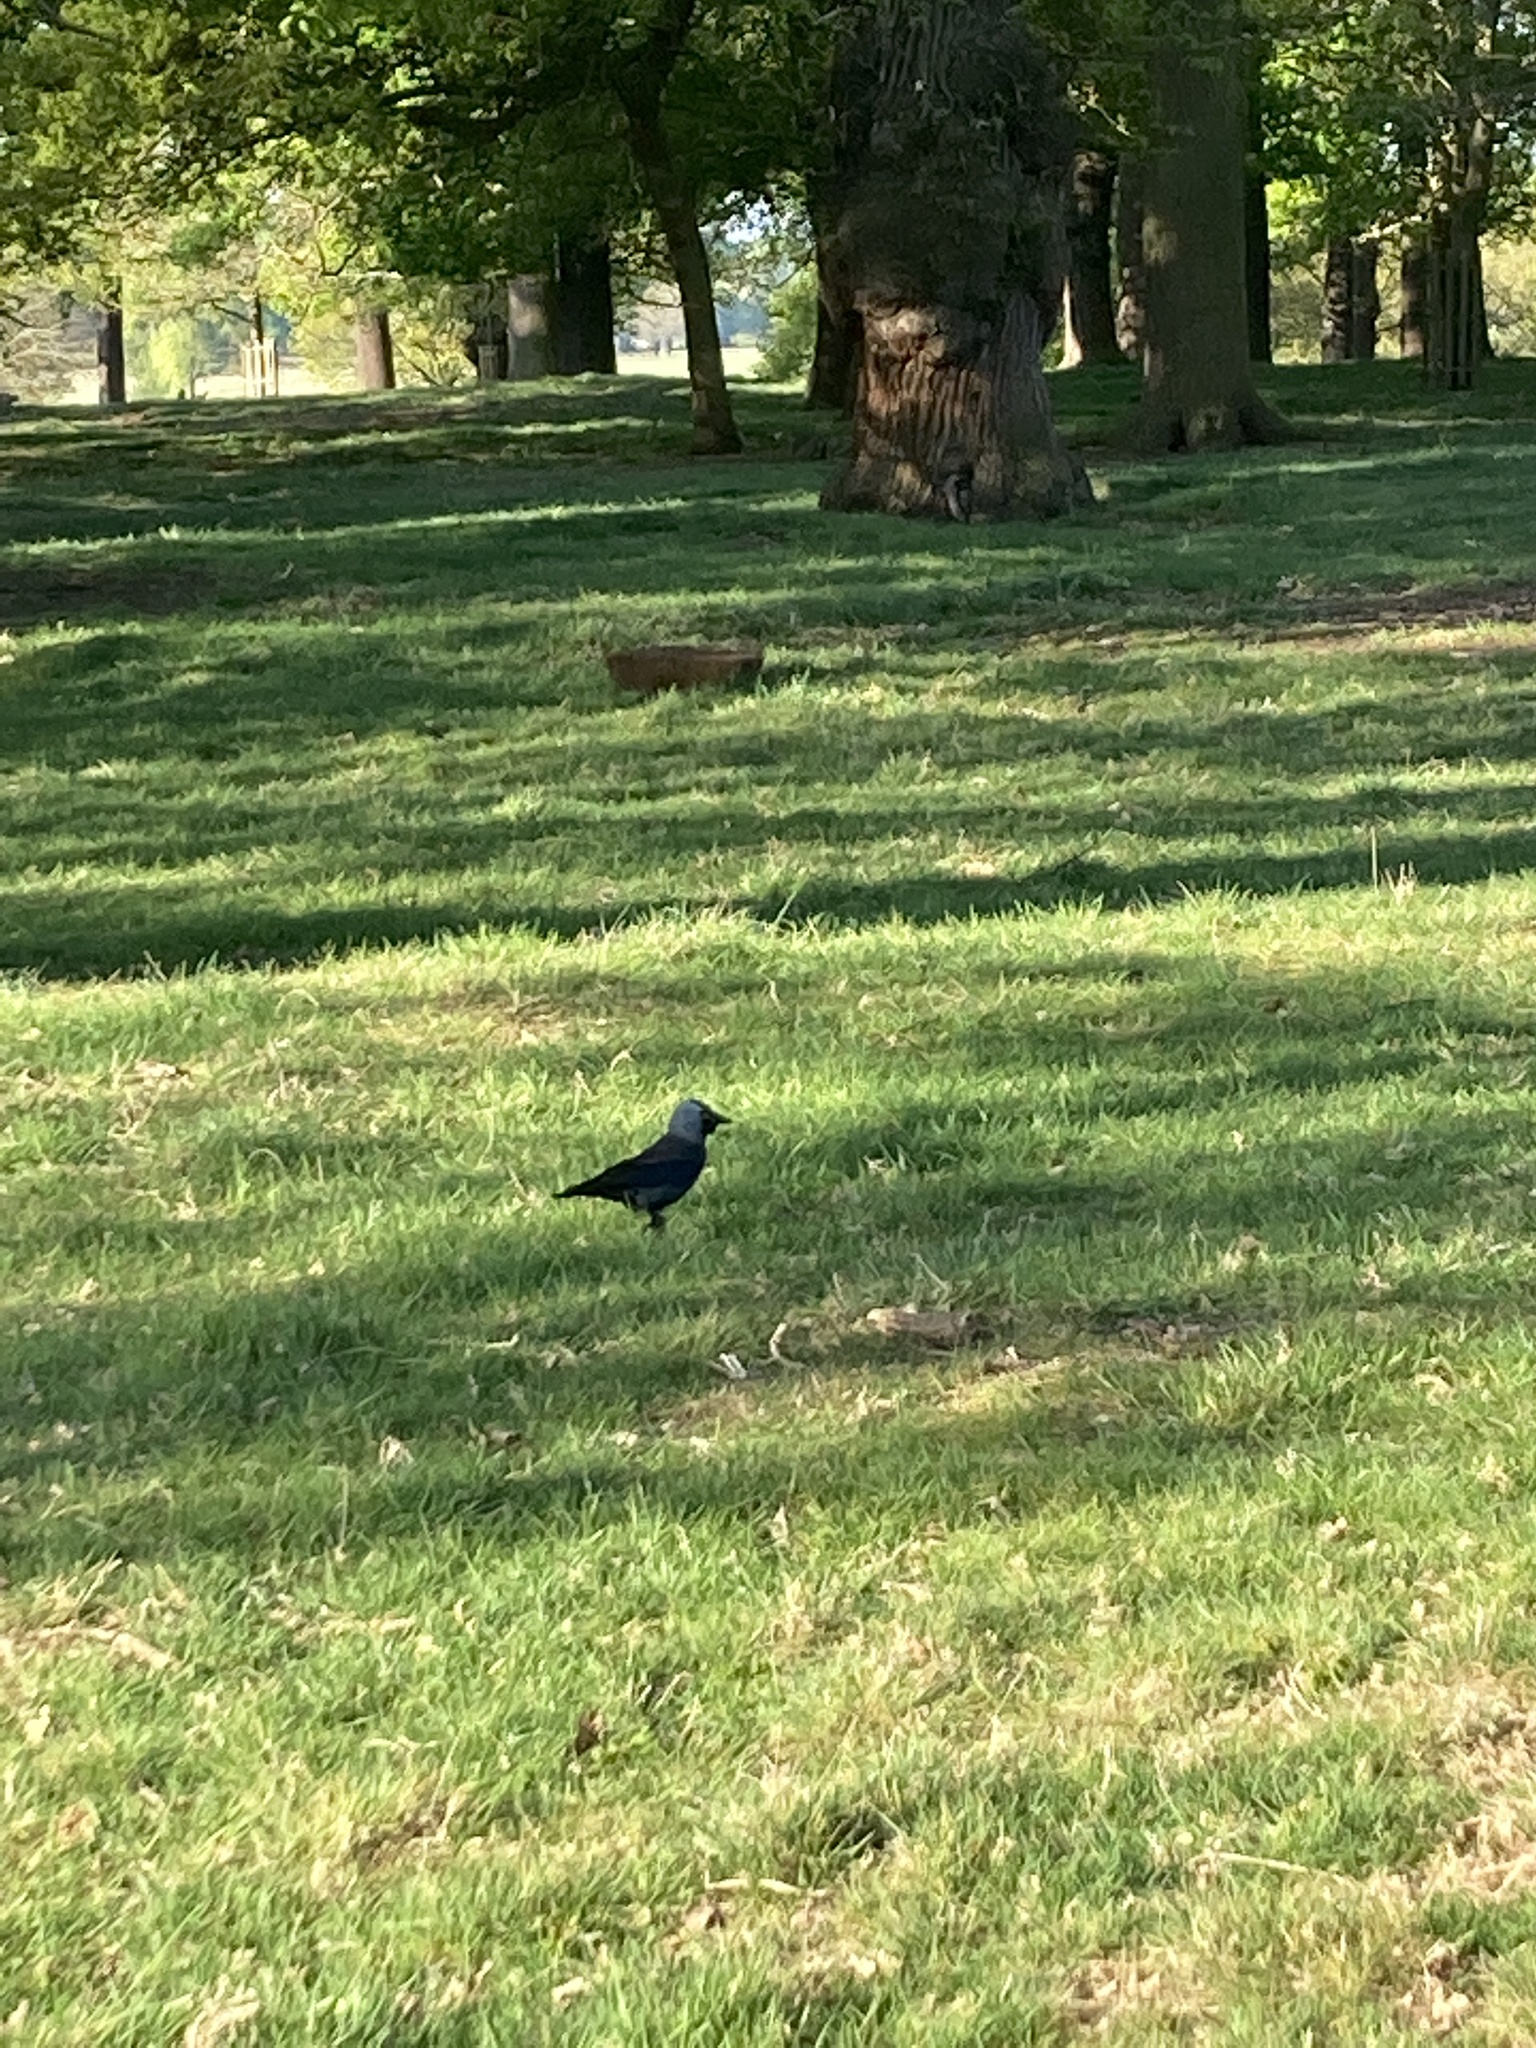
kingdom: Animalia
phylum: Chordata
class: Aves
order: Passeriformes
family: Corvidae
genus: Coloeus
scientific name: Coloeus monedula
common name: Western jackdaw
